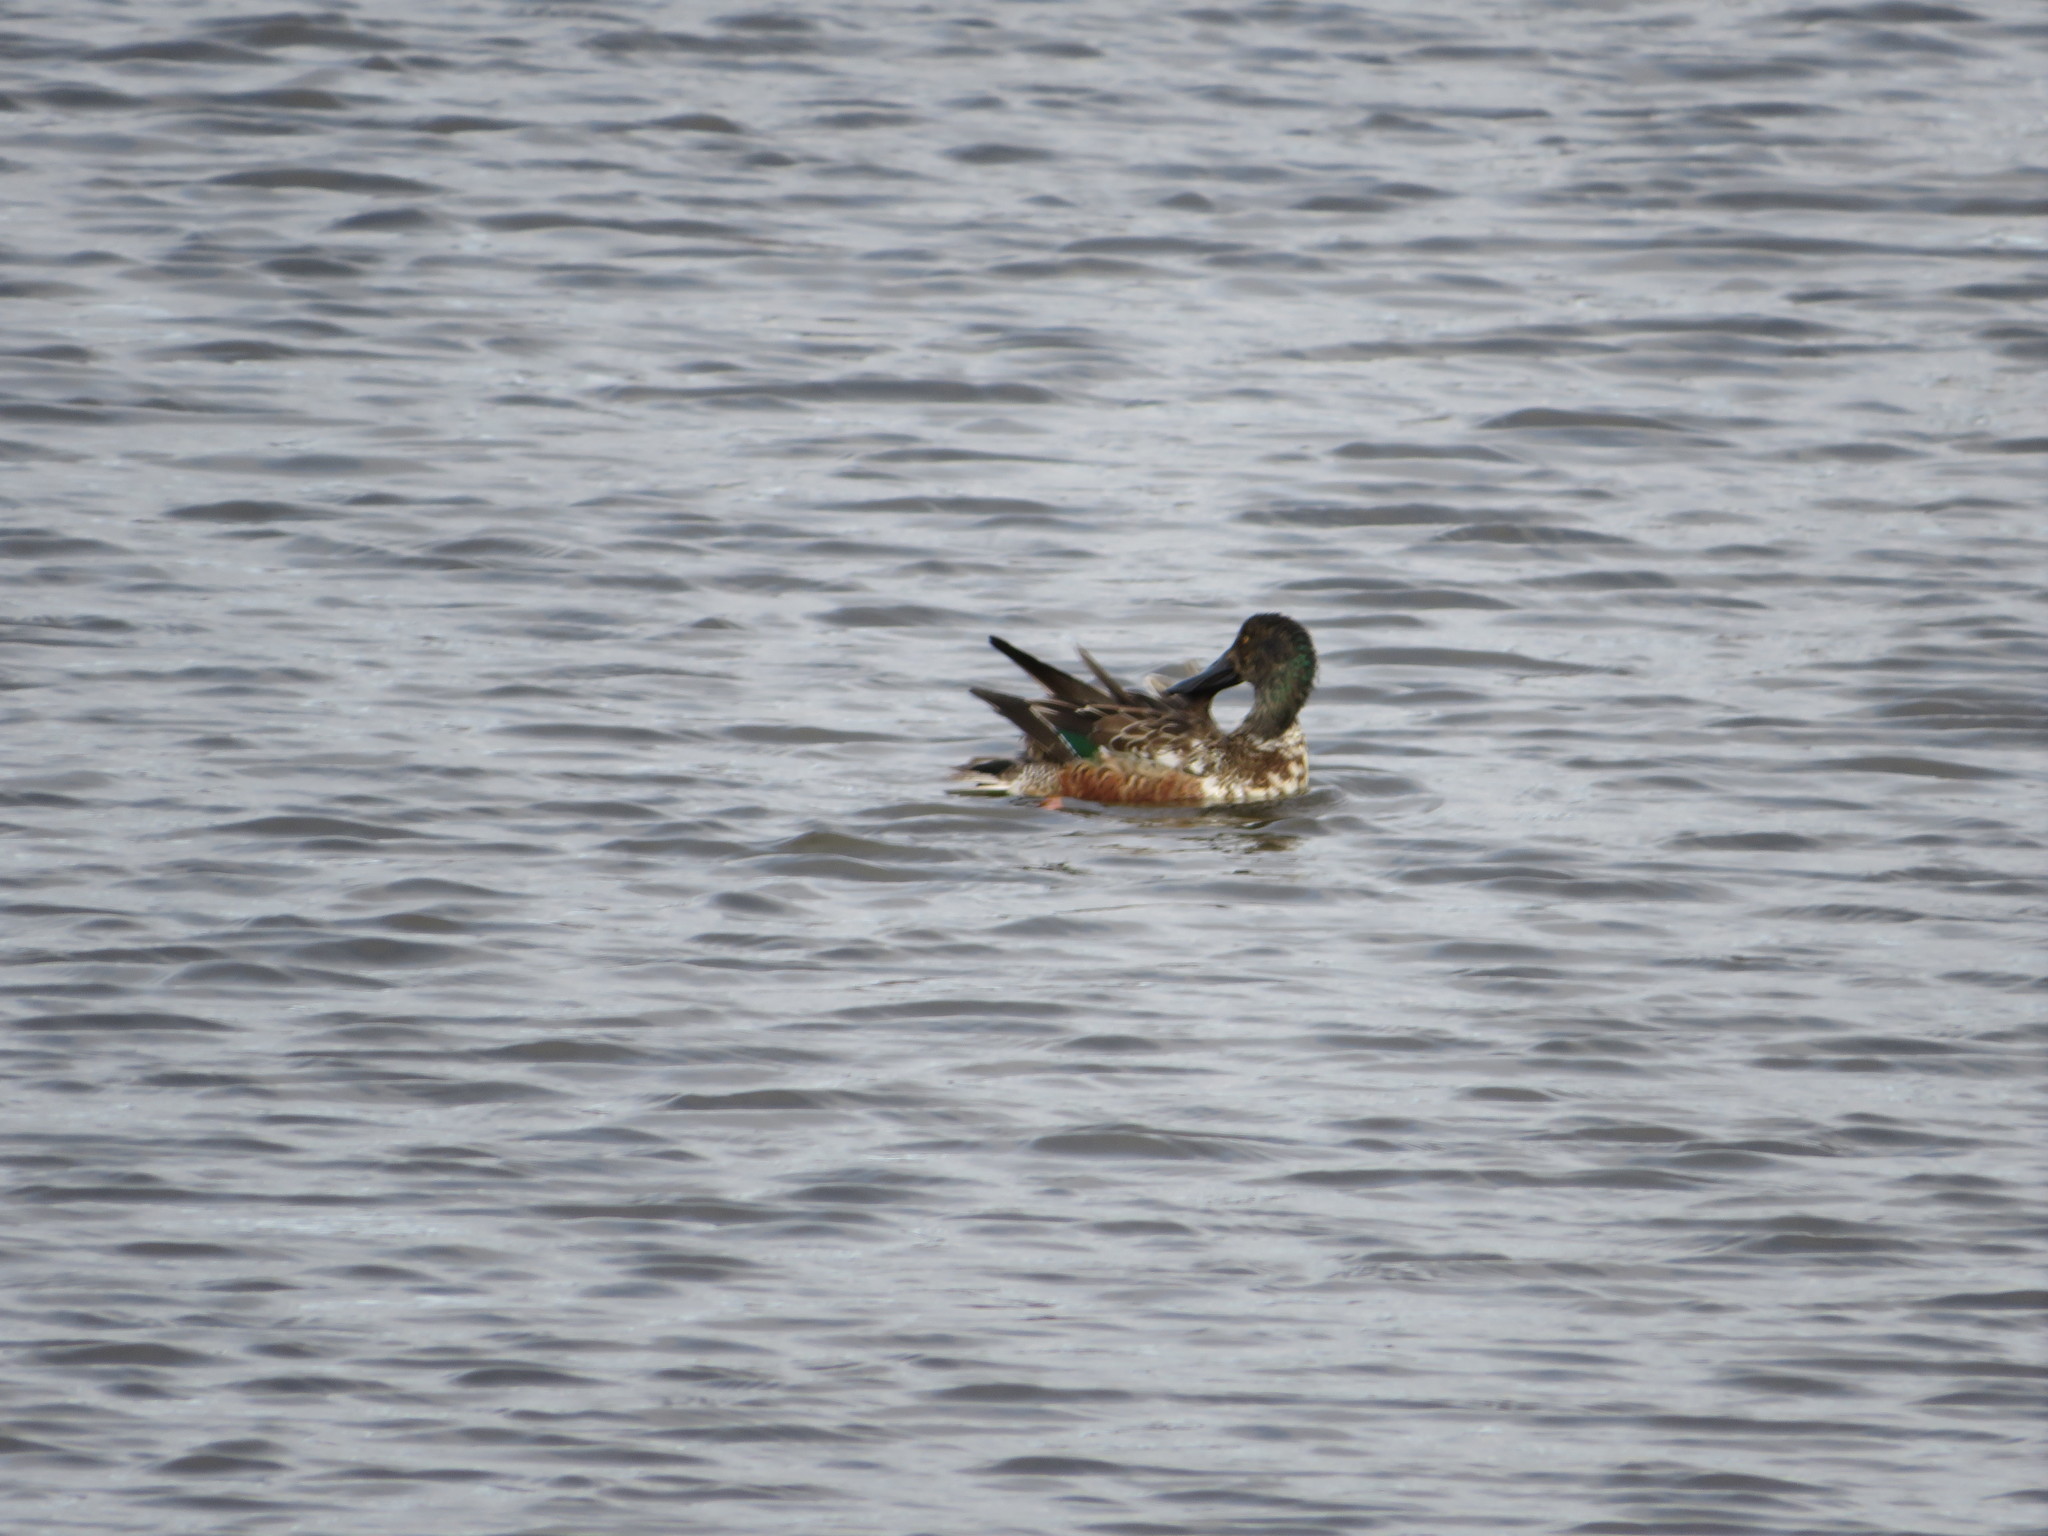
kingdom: Animalia
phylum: Chordata
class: Aves
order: Anseriformes
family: Anatidae
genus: Spatula
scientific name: Spatula clypeata
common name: Northern shoveler
